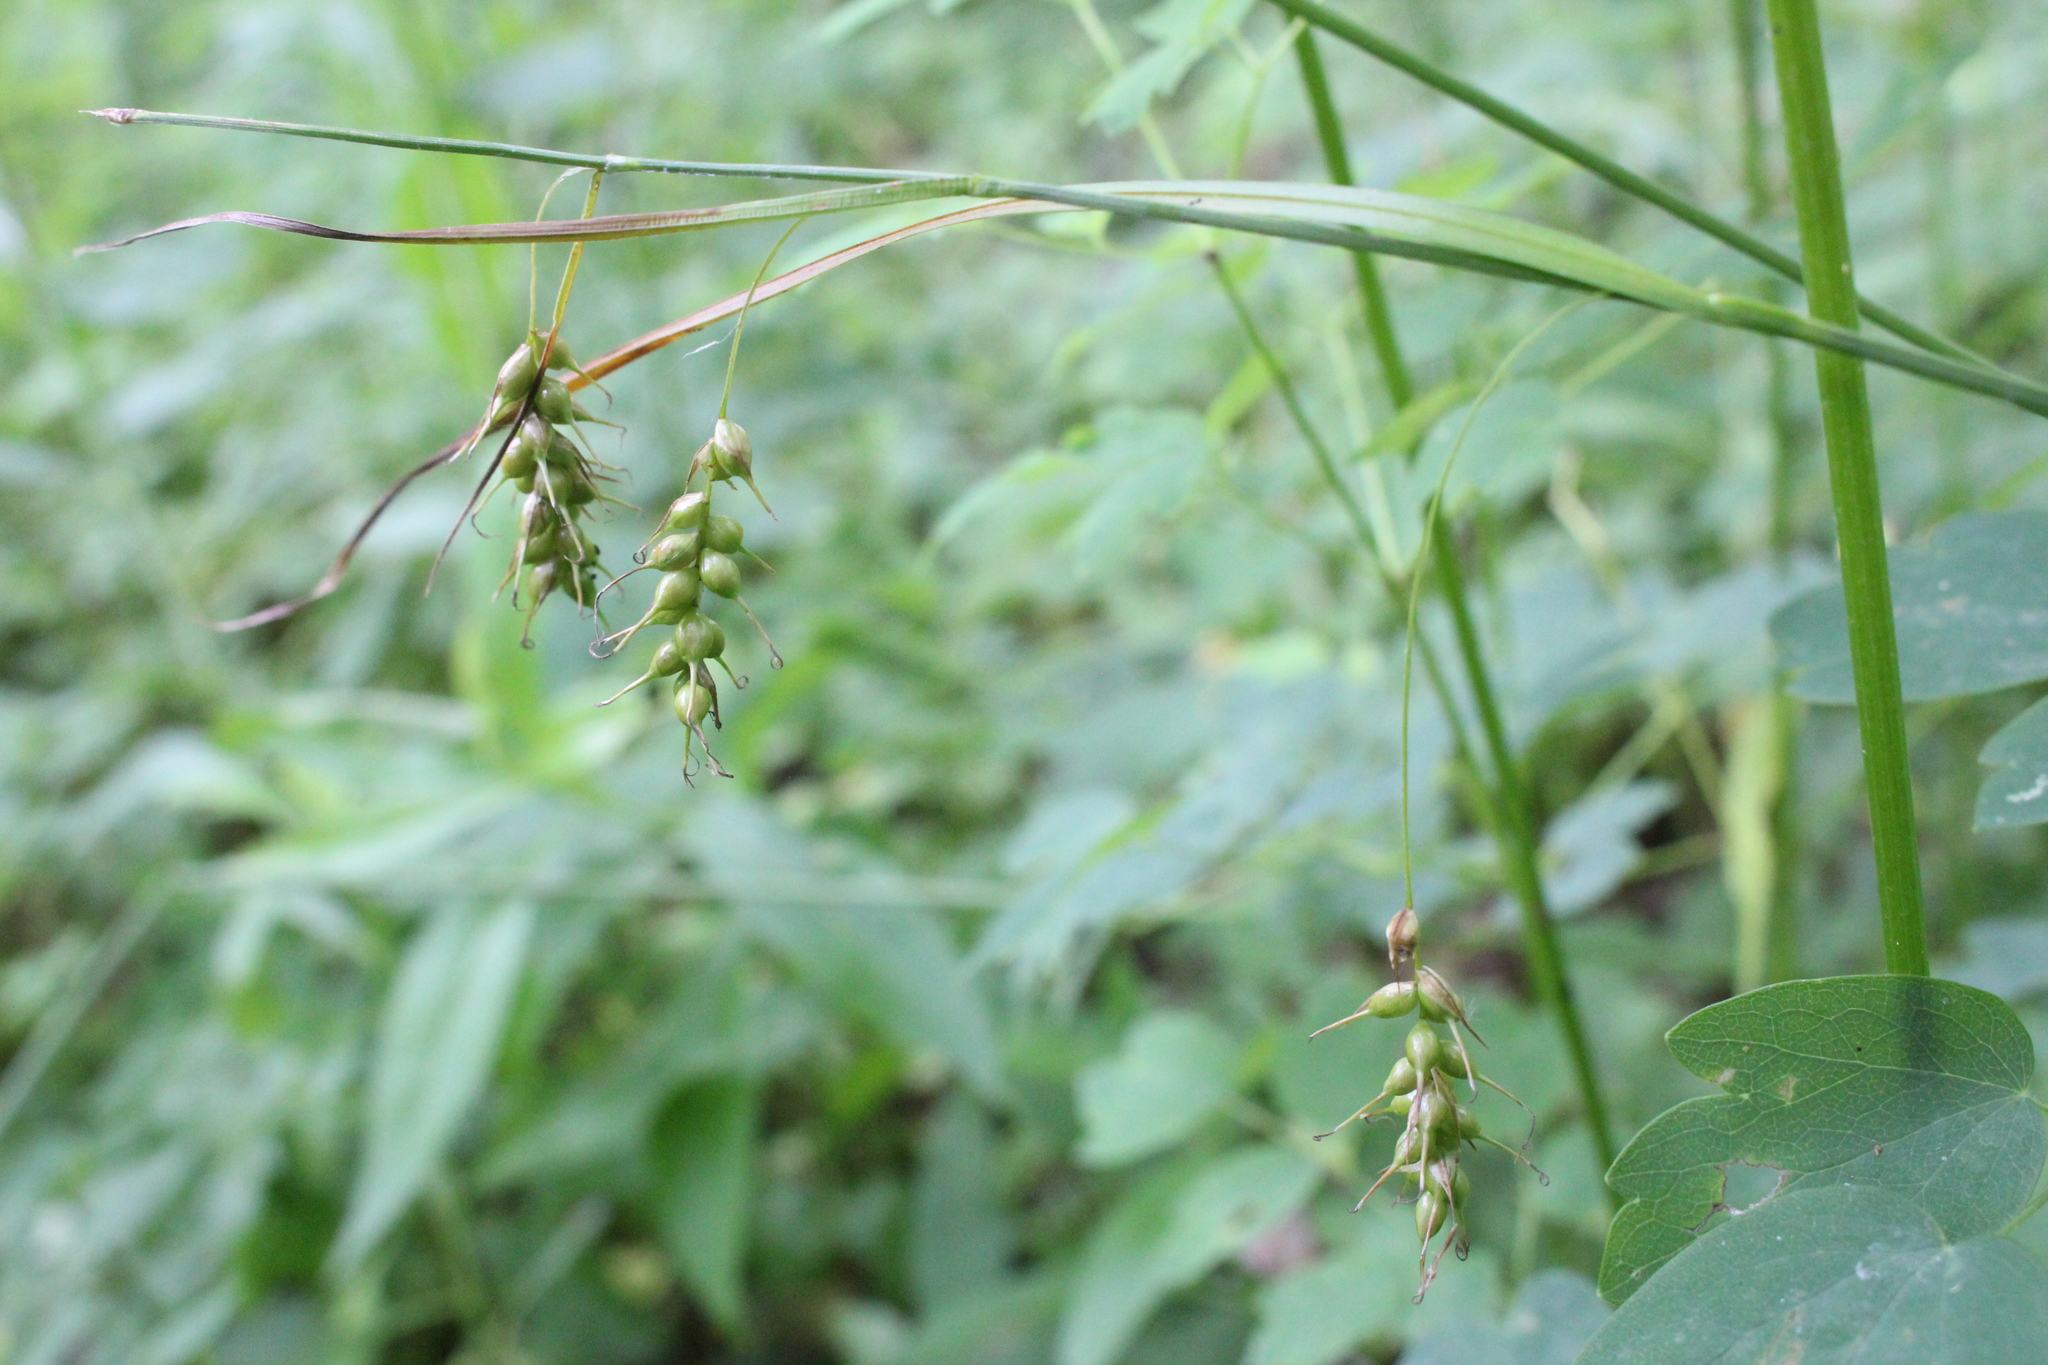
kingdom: Plantae
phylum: Tracheophyta
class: Liliopsida
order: Poales
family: Cyperaceae
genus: Carex
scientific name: Carex sprengelii
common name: Long-beaked sedge
